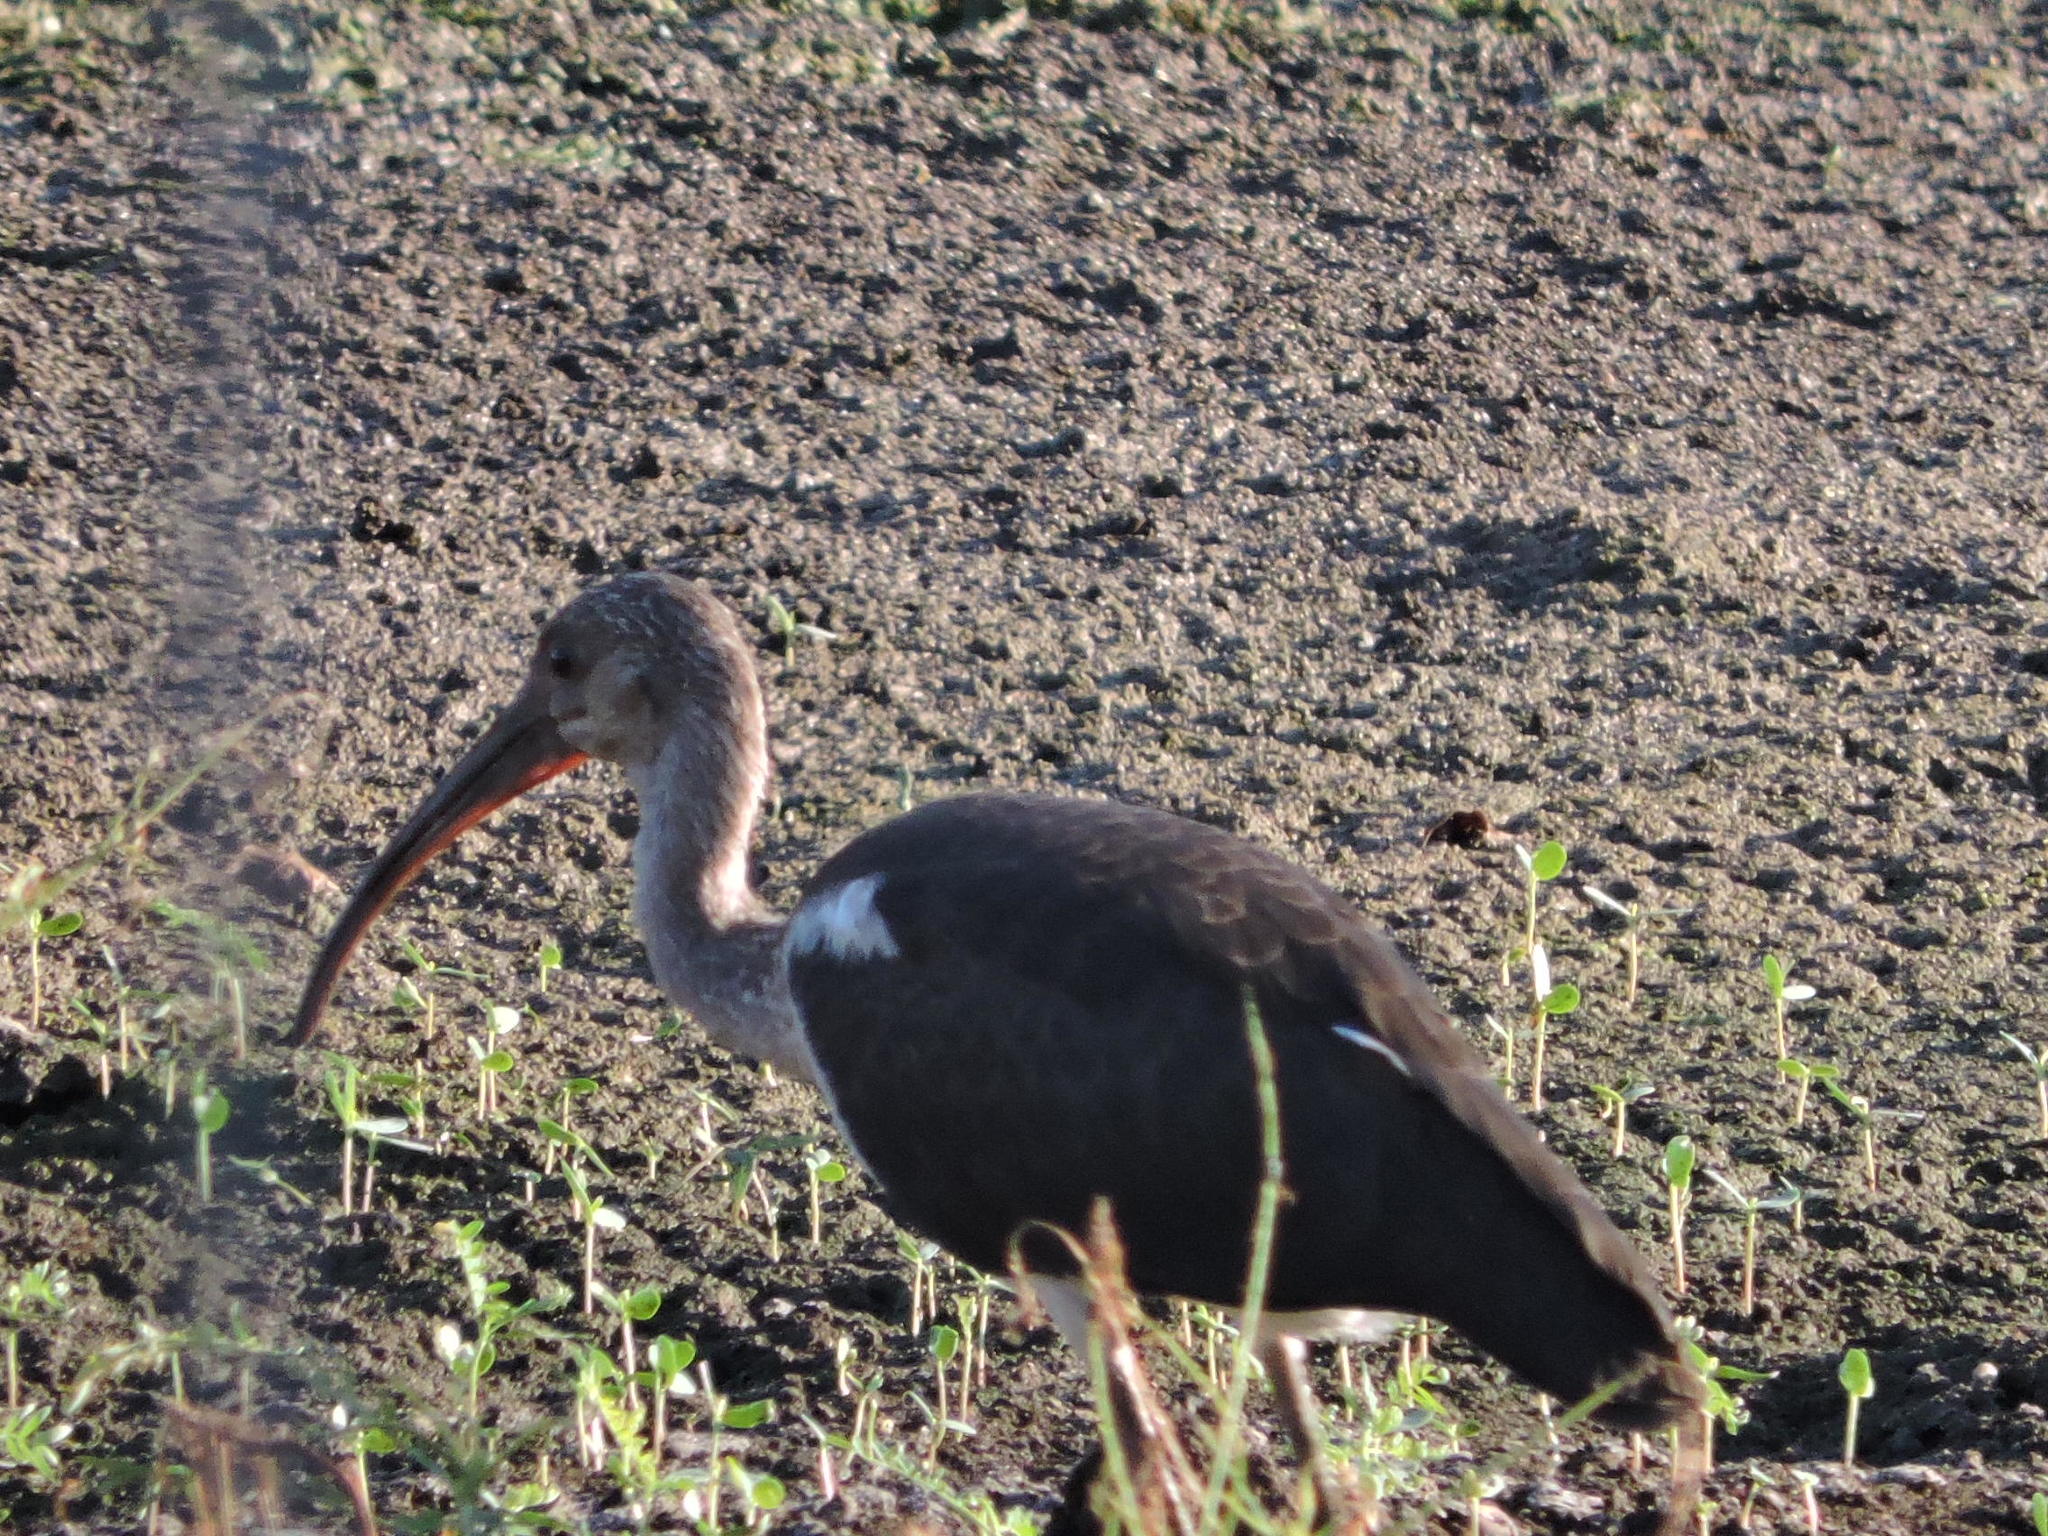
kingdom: Animalia
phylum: Chordata
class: Aves
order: Pelecaniformes
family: Threskiornithidae
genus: Eudocimus
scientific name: Eudocimus albus
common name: White ibis
